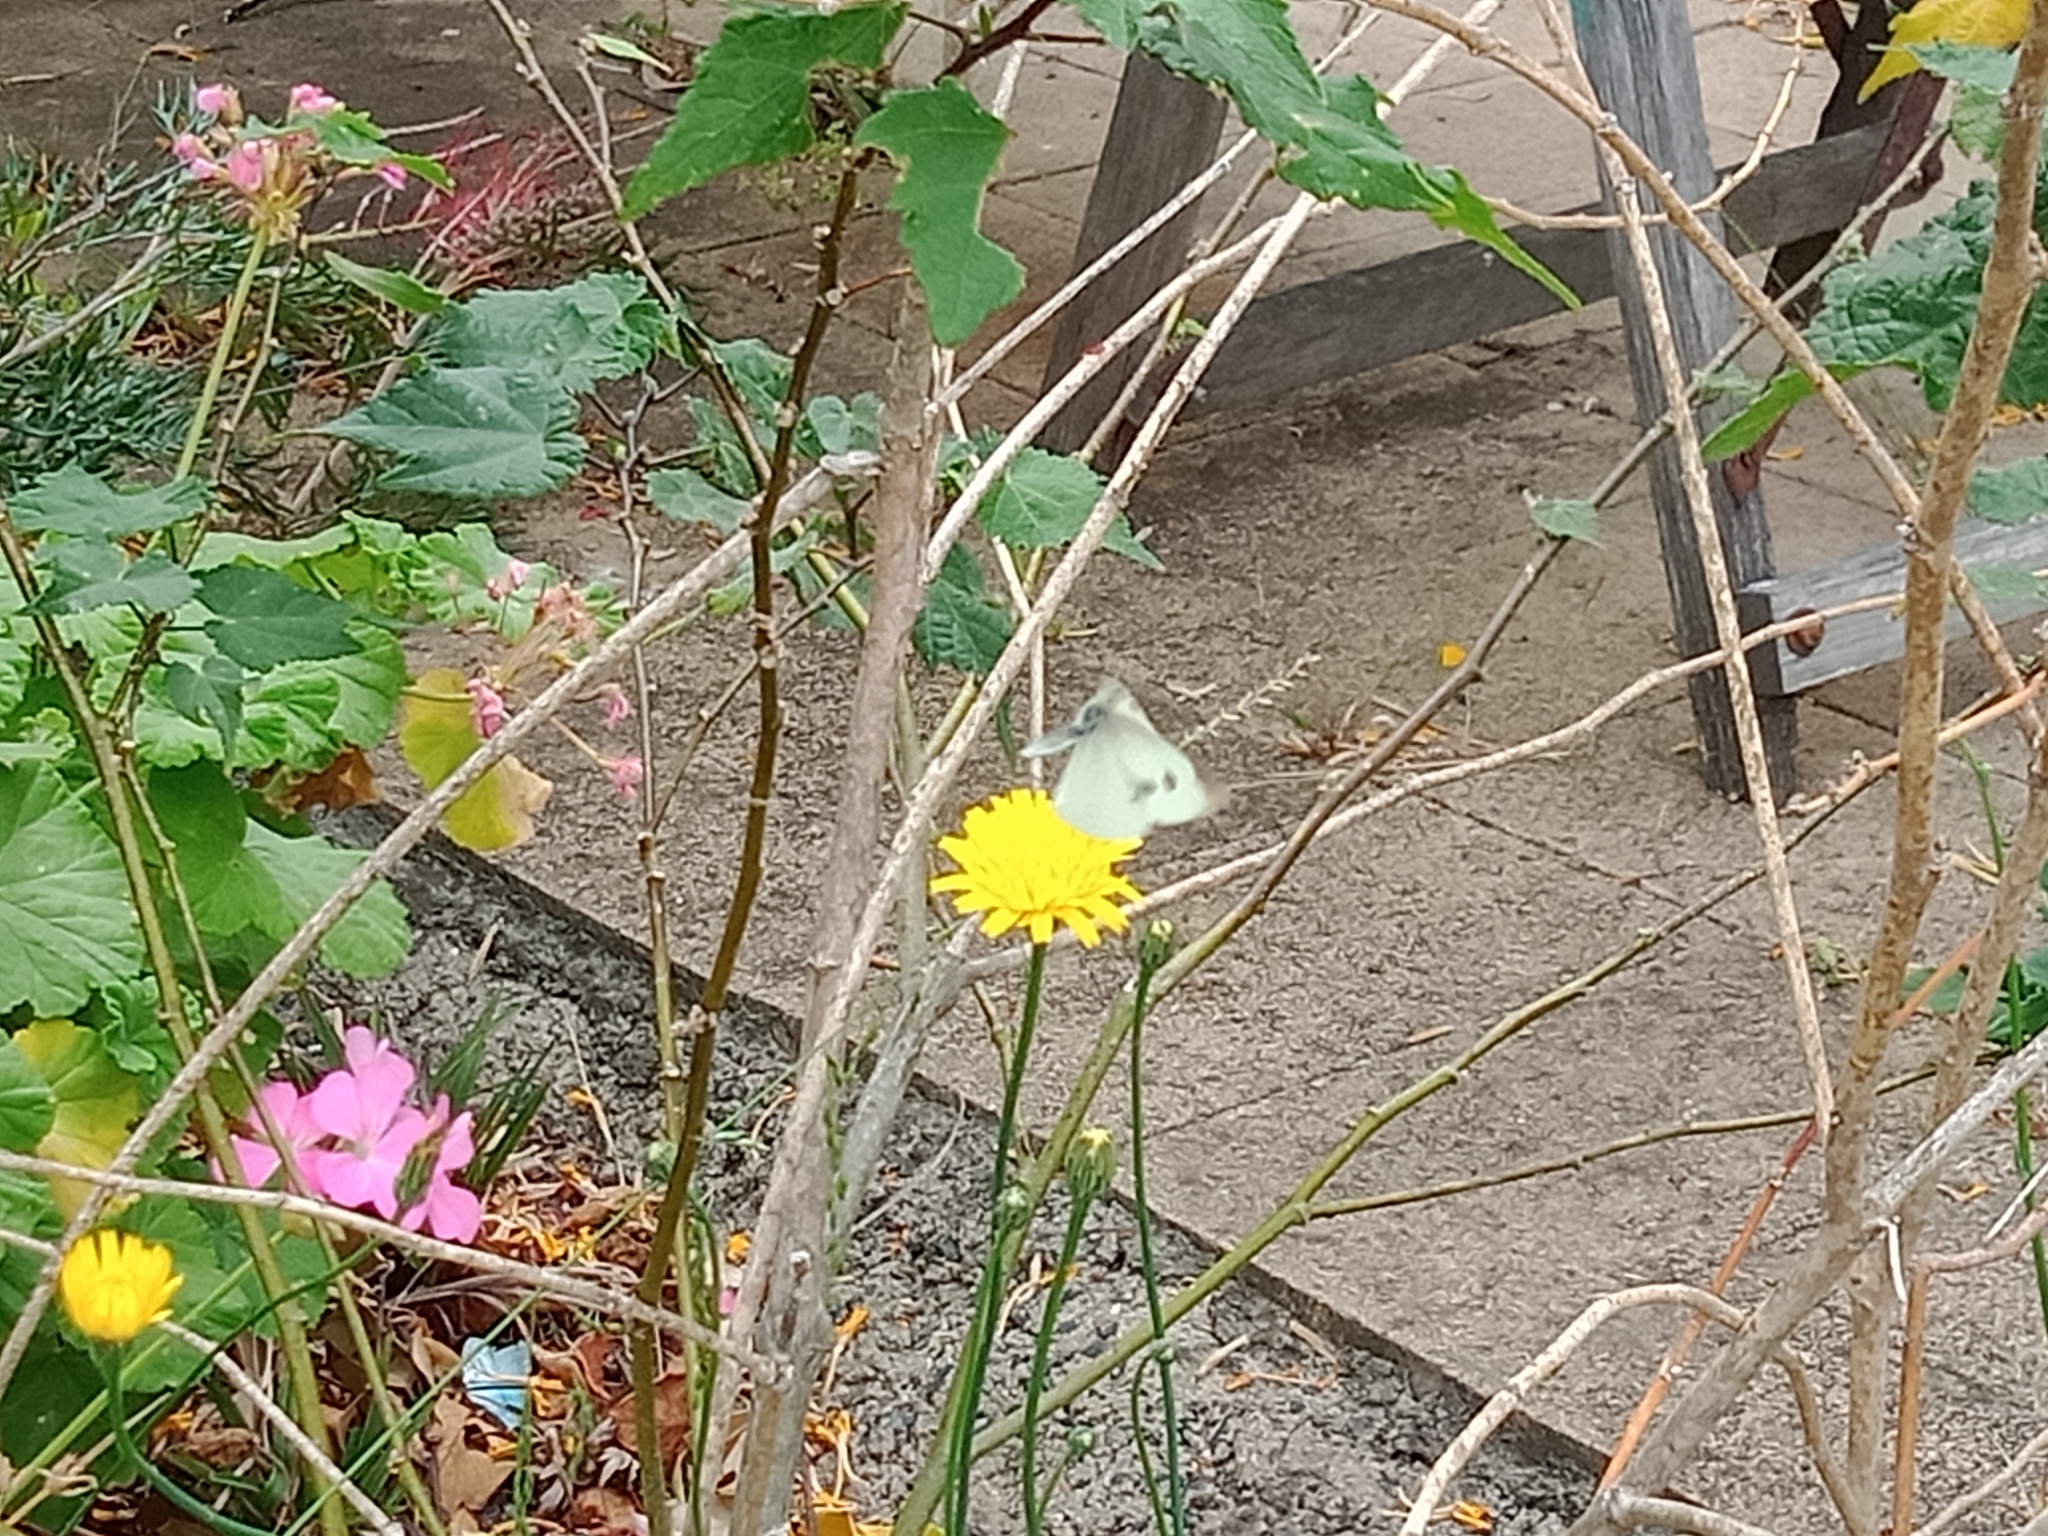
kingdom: Animalia
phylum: Arthropoda
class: Insecta
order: Lepidoptera
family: Pieridae
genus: Pieris
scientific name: Pieris rapae
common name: Small white
